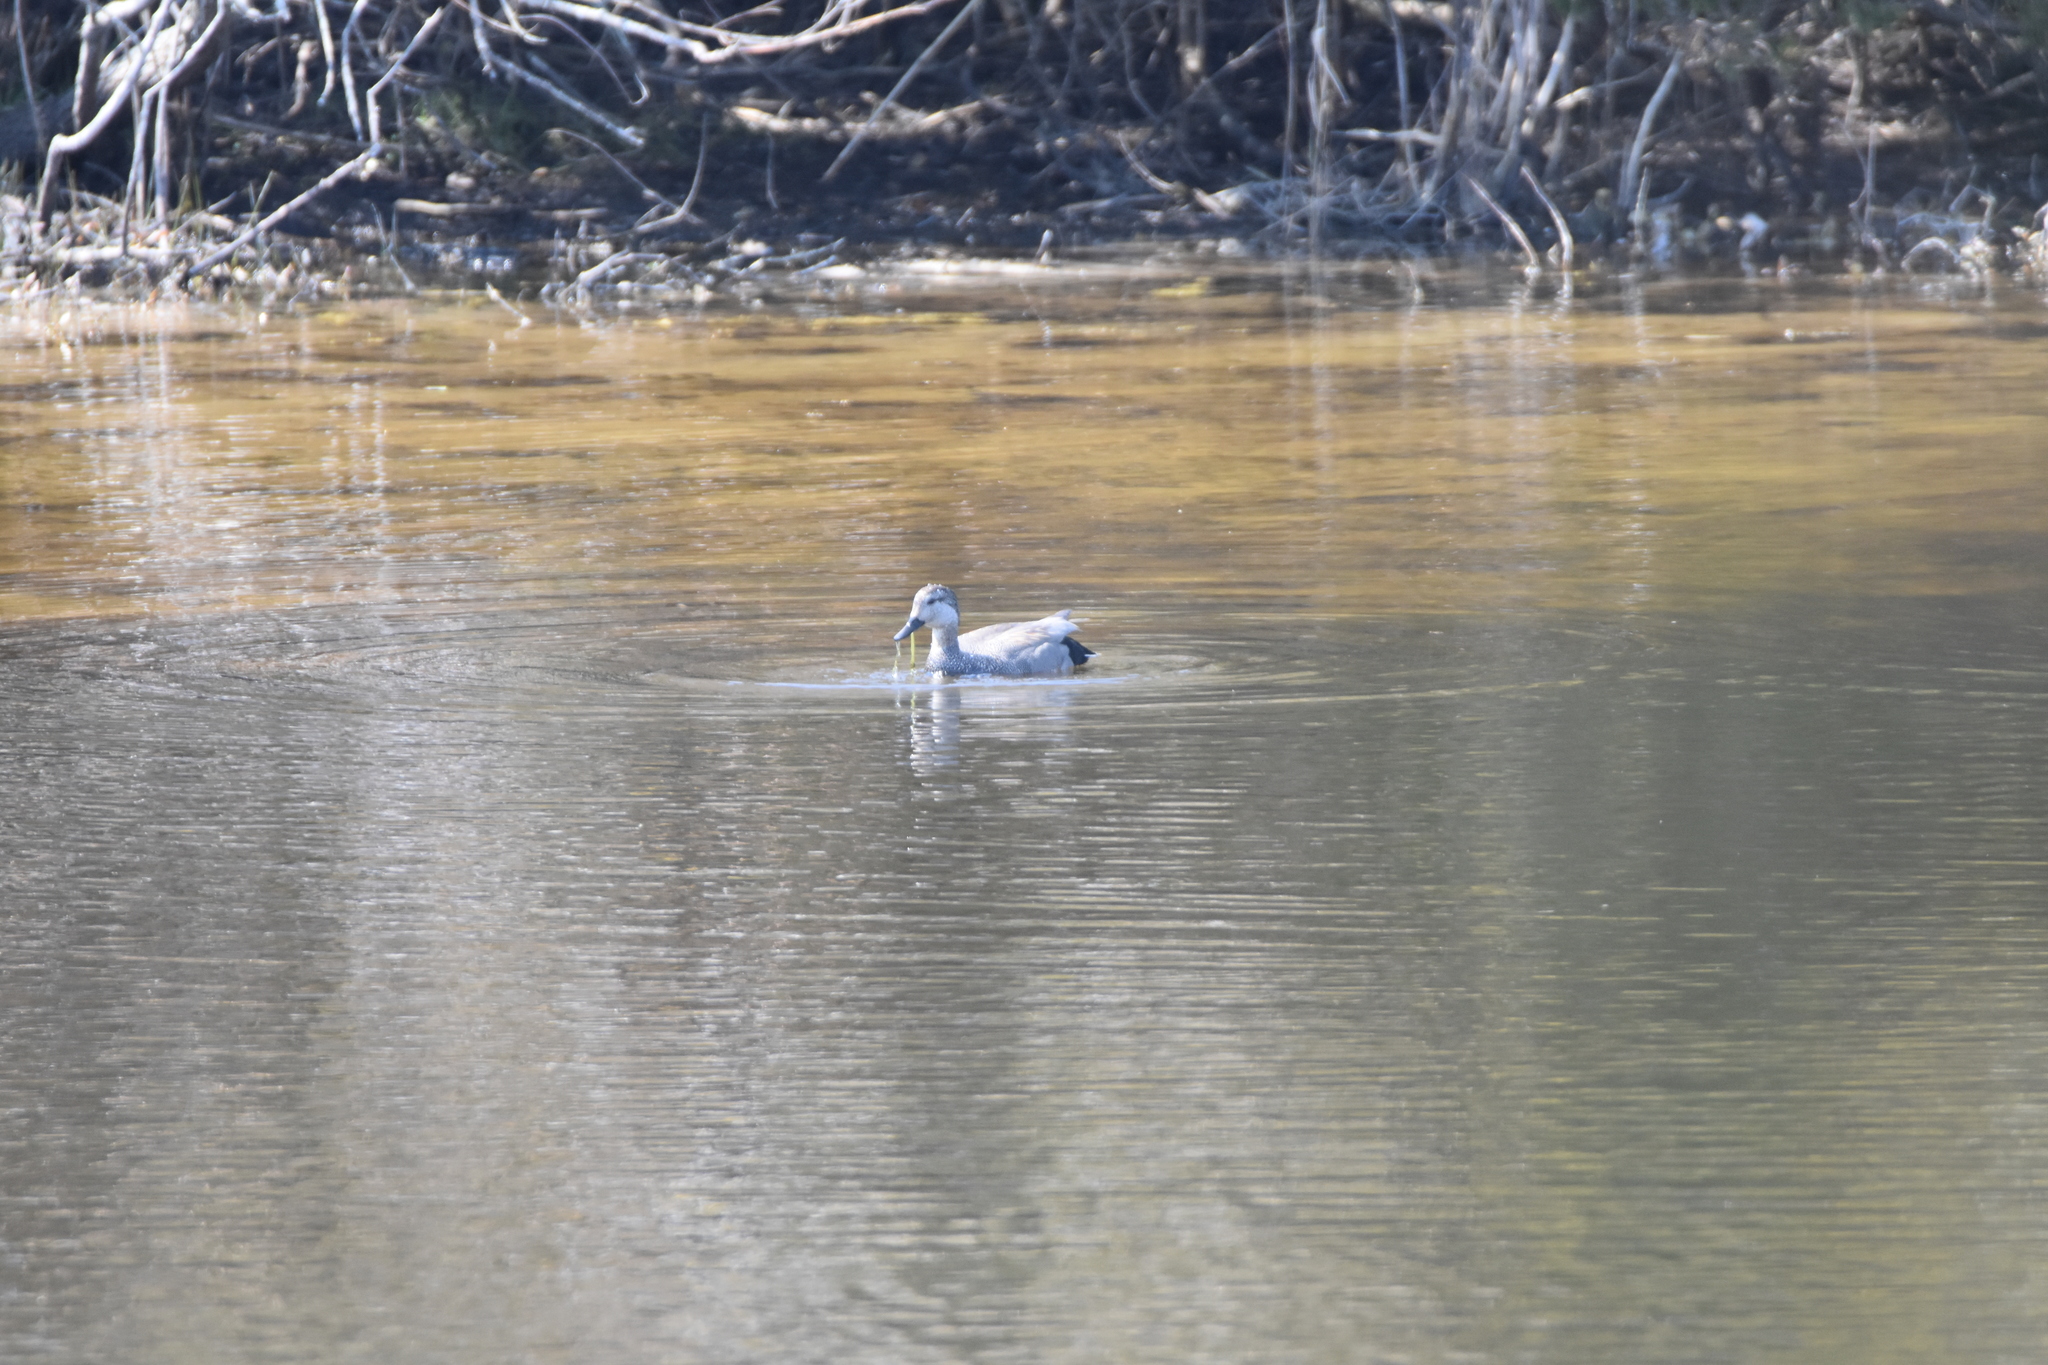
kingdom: Animalia
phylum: Chordata
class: Aves
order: Anseriformes
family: Anatidae
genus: Mareca
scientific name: Mareca strepera
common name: Gadwall
